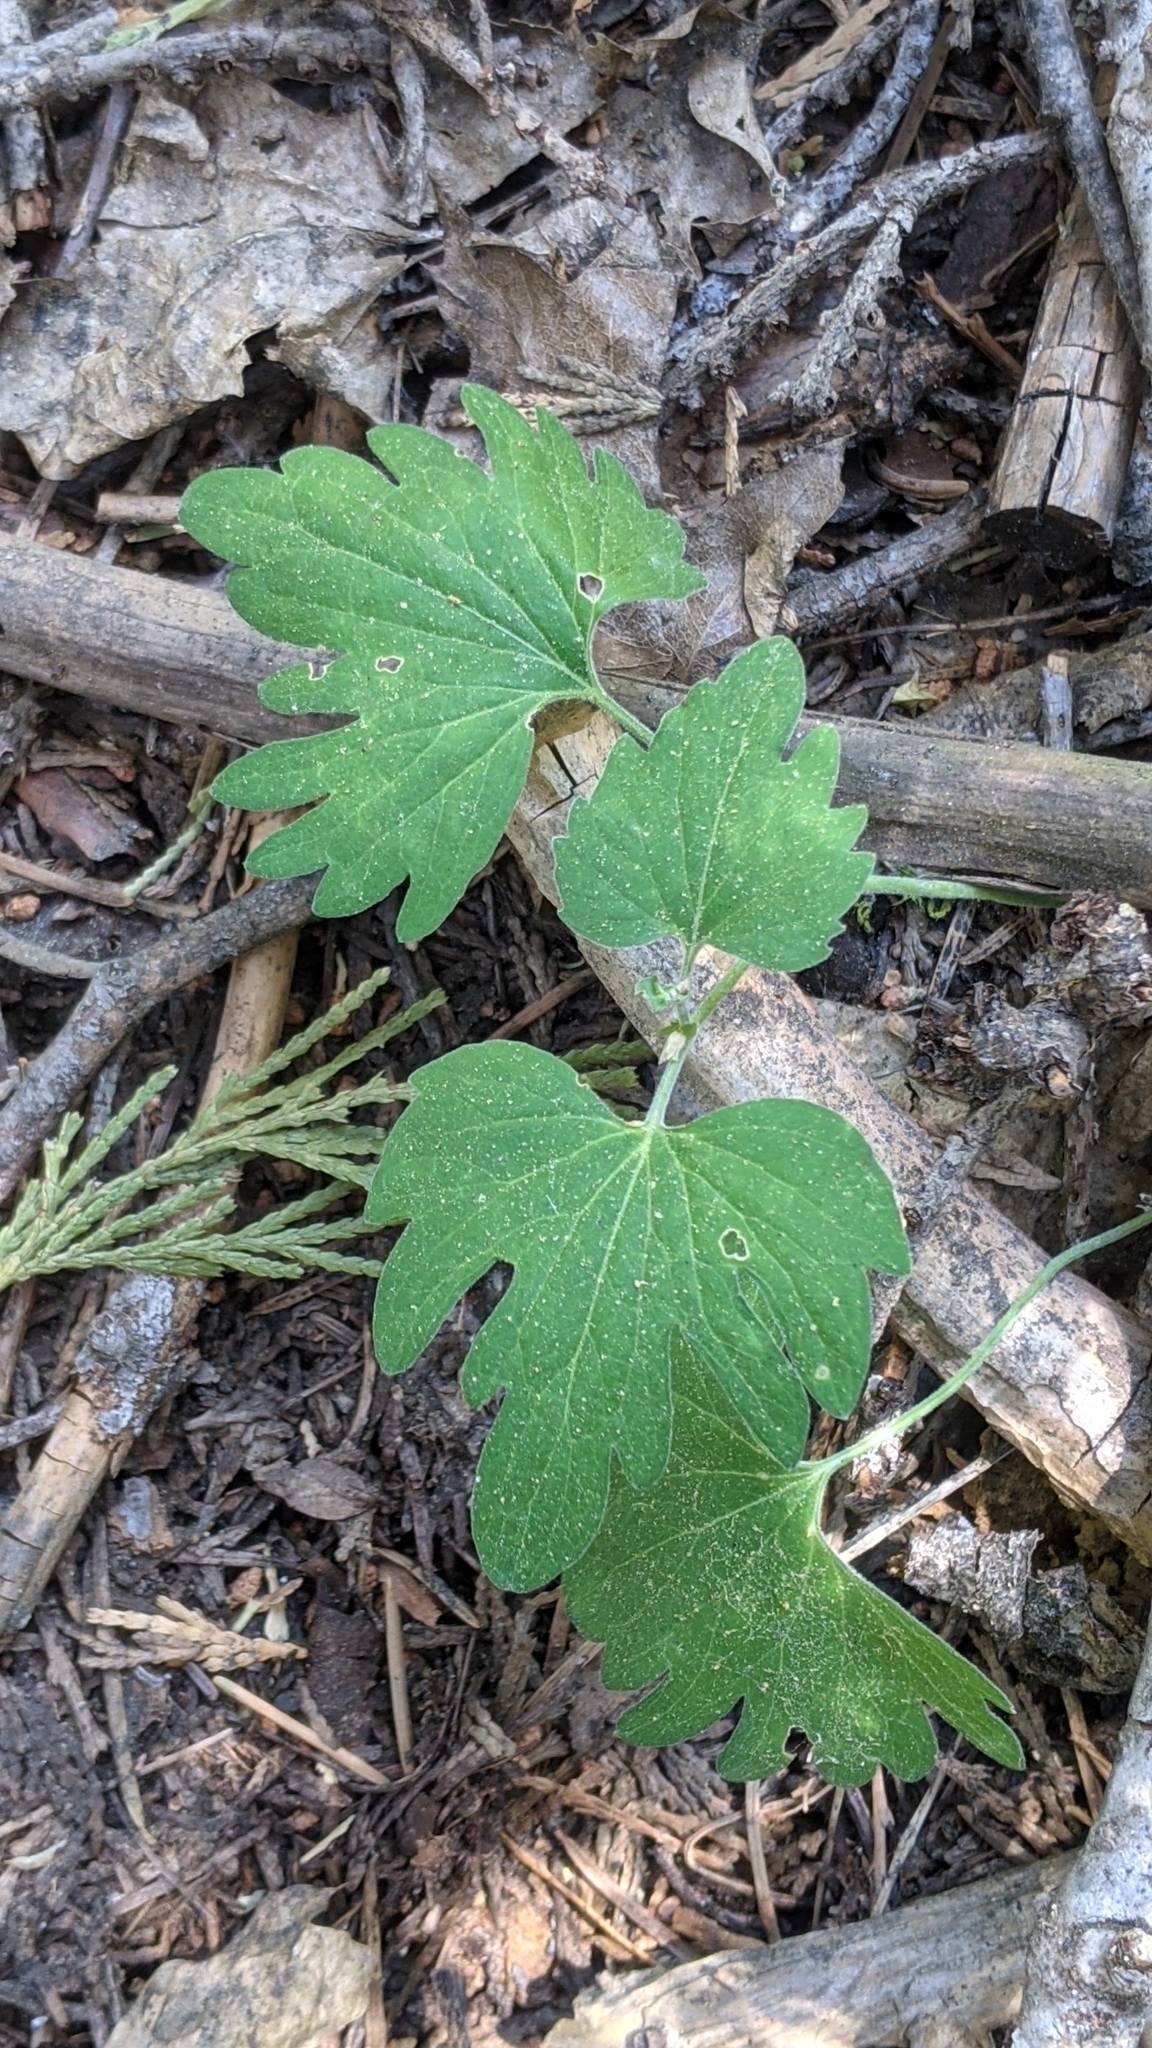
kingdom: Plantae
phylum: Tracheophyta
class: Magnoliopsida
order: Malpighiales
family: Violaceae
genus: Viola
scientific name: Viola lobata
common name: Pine violet
